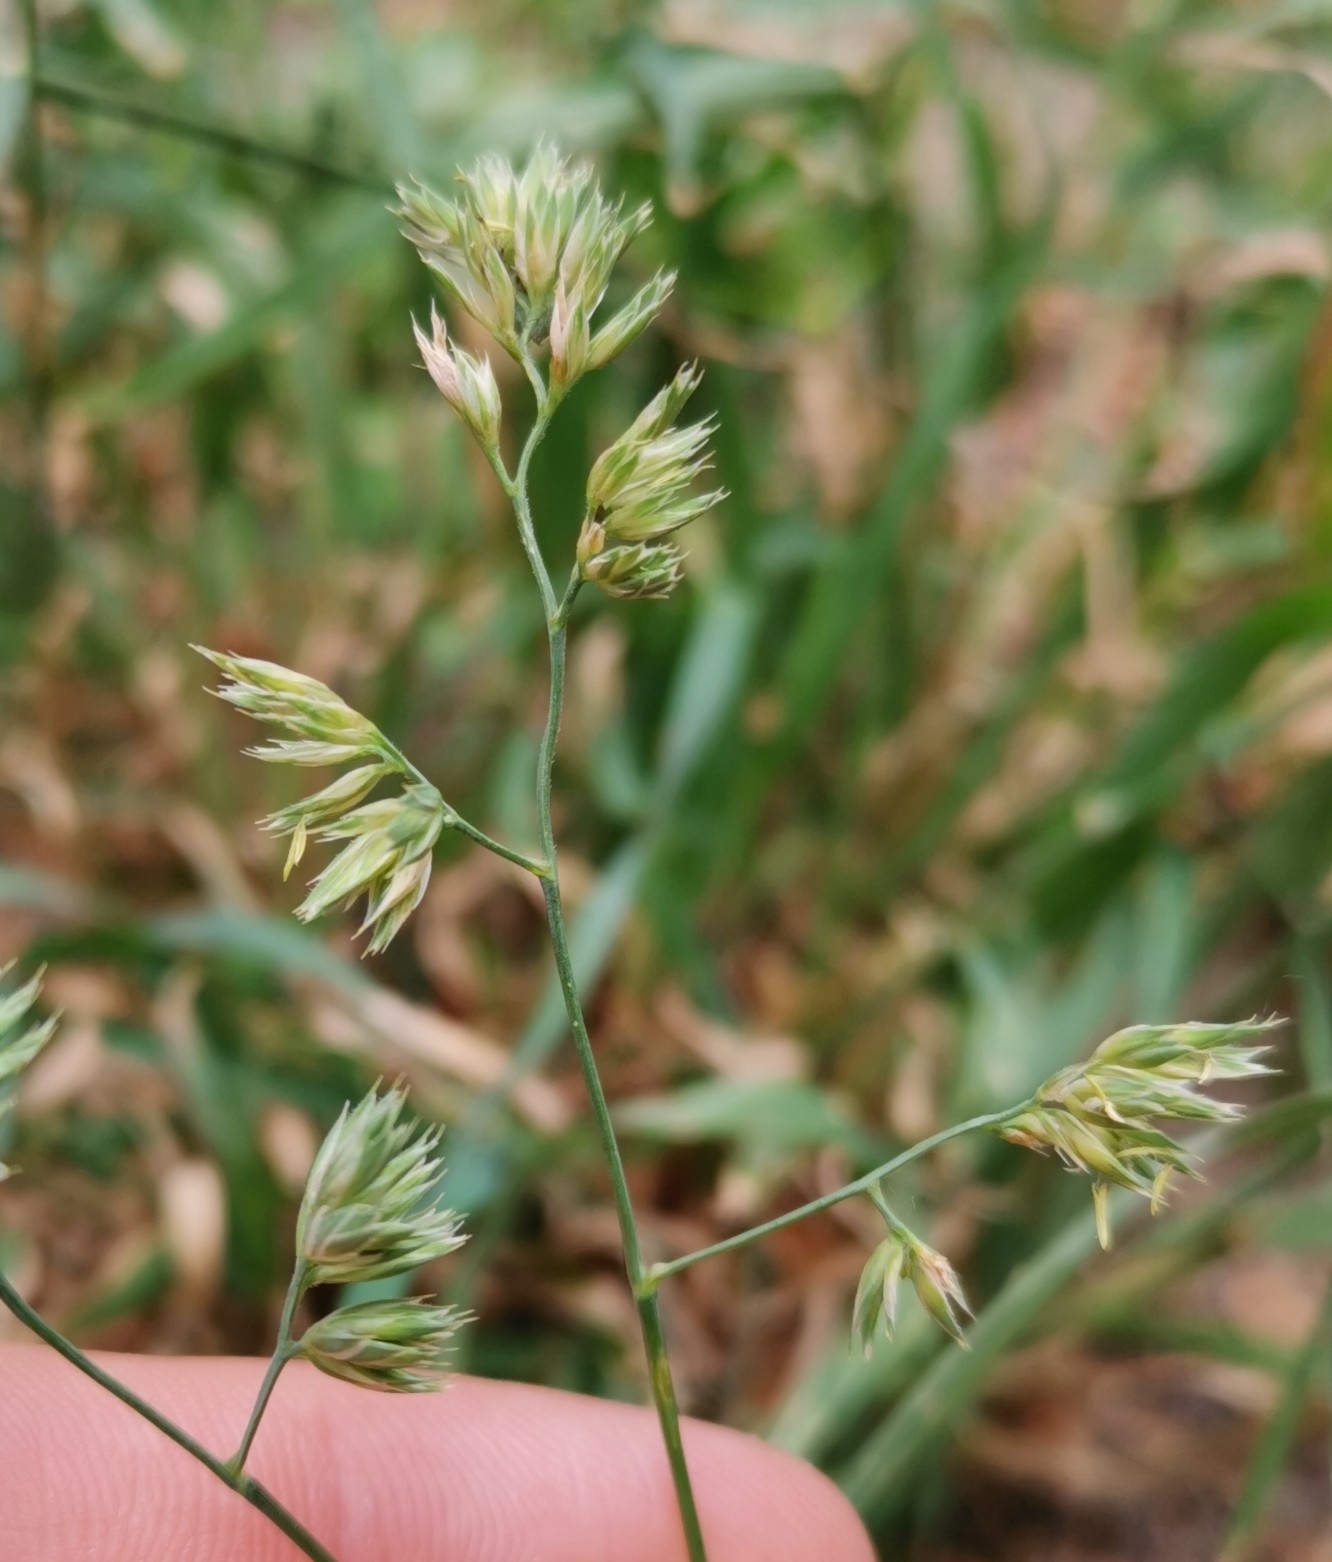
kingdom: Plantae
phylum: Tracheophyta
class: Liliopsida
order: Poales
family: Poaceae
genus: Dactylis
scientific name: Dactylis glomerata
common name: Orchardgrass
